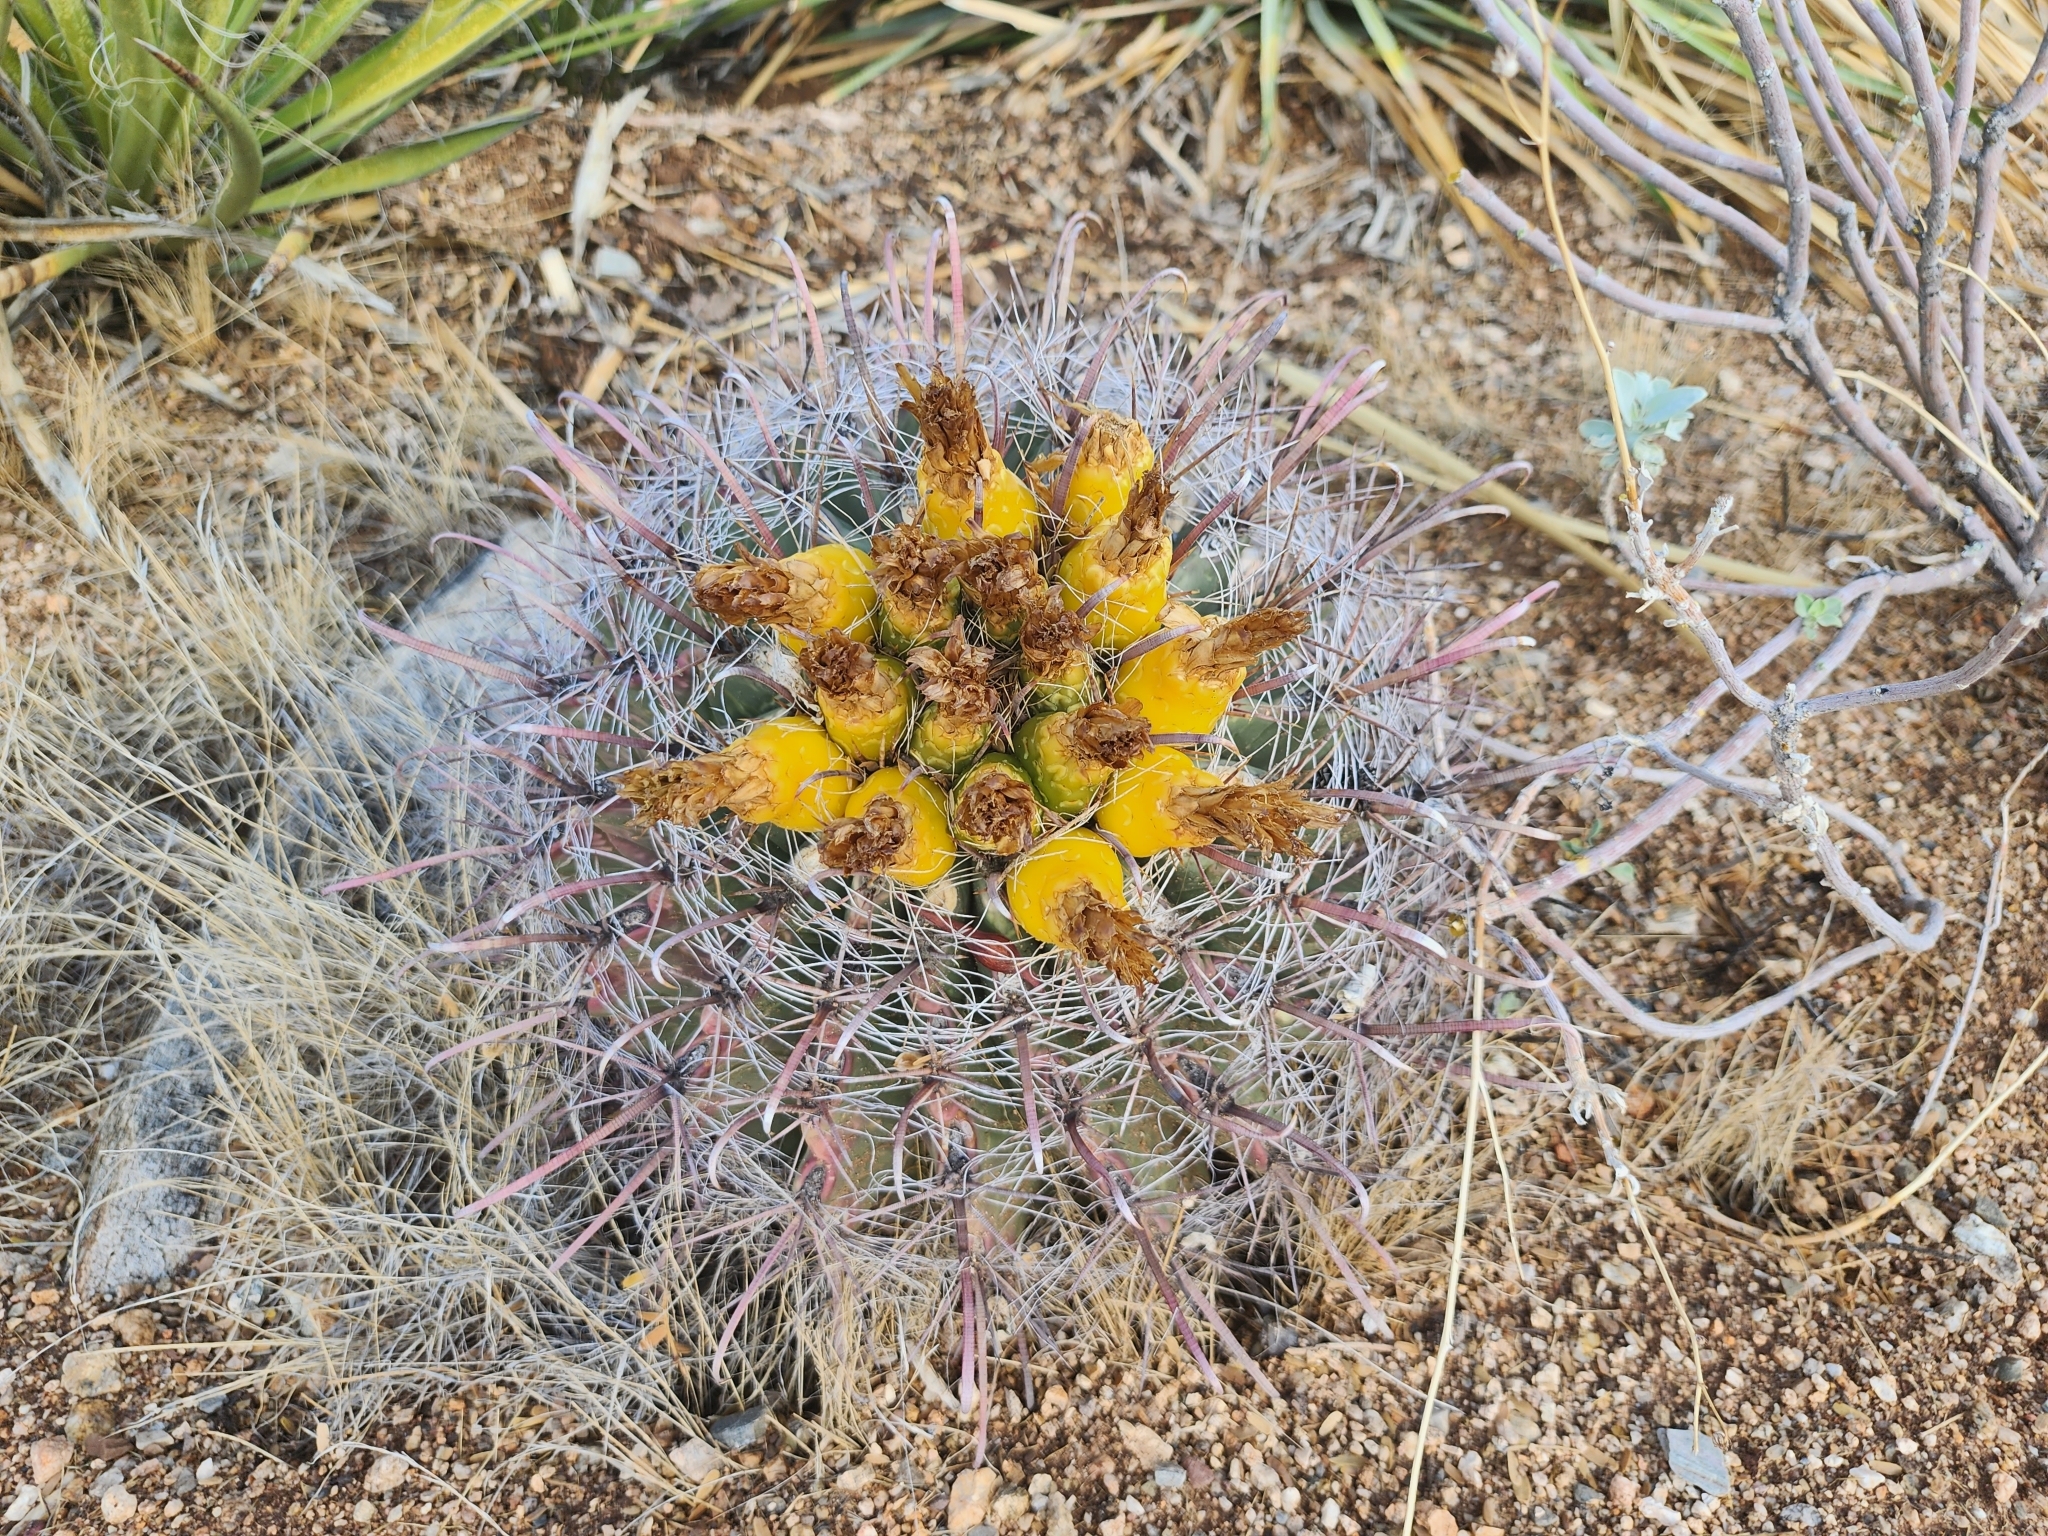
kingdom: Plantae
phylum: Tracheophyta
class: Magnoliopsida
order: Caryophyllales
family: Cactaceae
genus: Ferocactus
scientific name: Ferocactus wislizeni
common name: Candy barrel cactus
